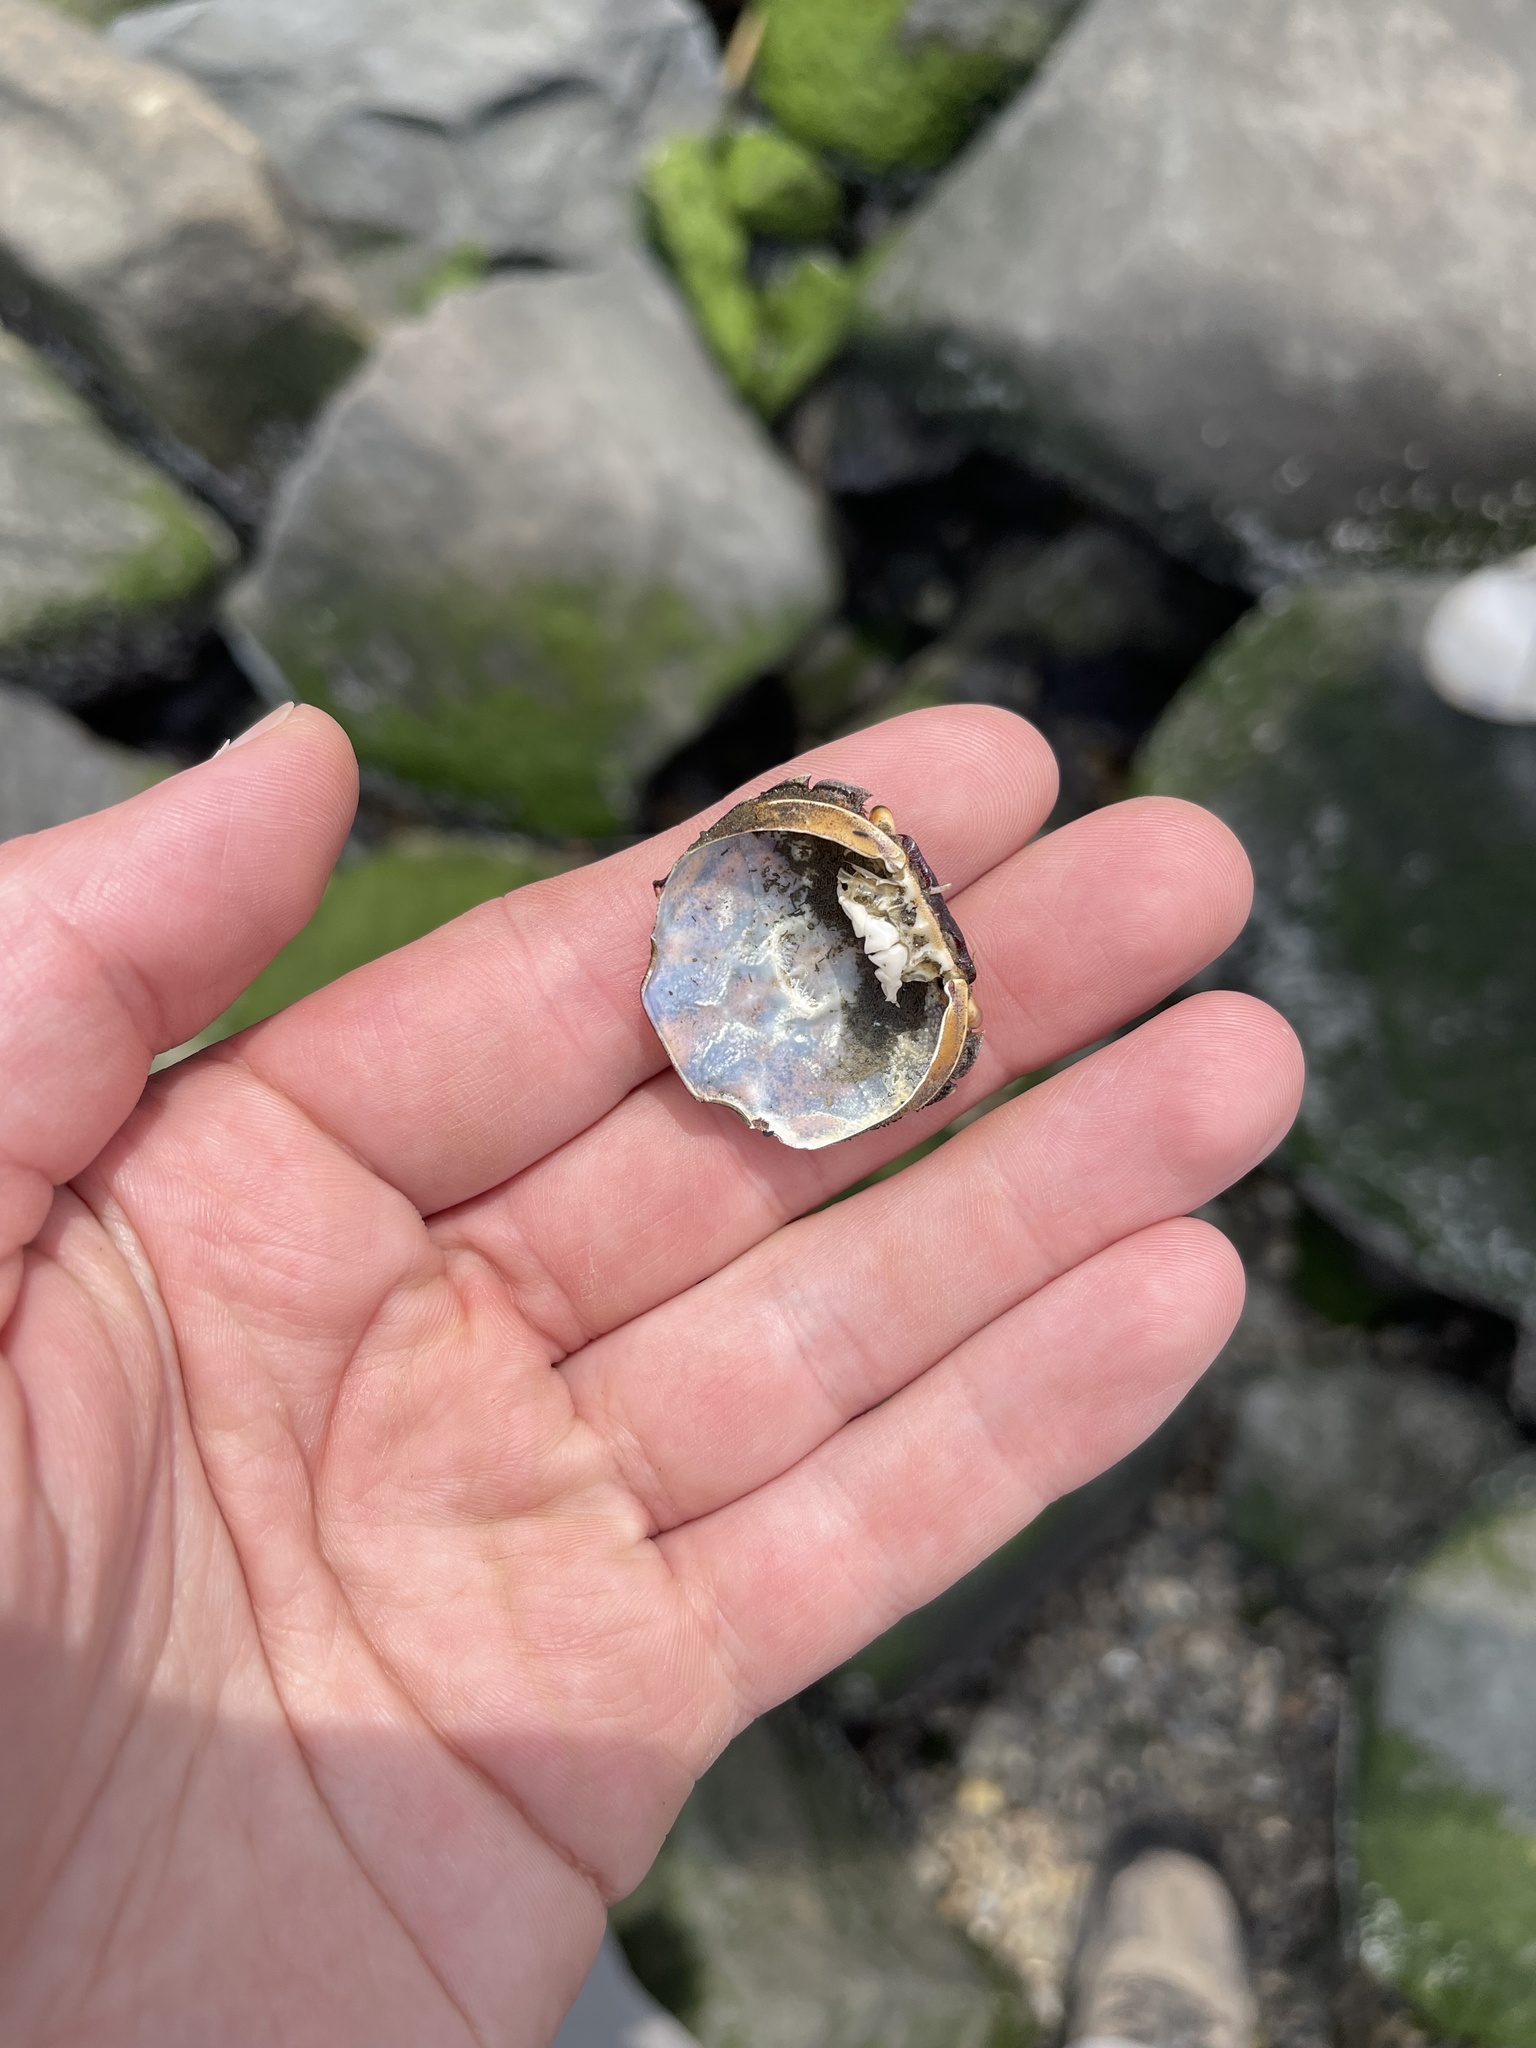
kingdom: Animalia
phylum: Arthropoda
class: Malacostraca
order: Decapoda
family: Varunidae
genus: Hemigrapsus
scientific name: Hemigrapsus sanguineus
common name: Asian shore crab
